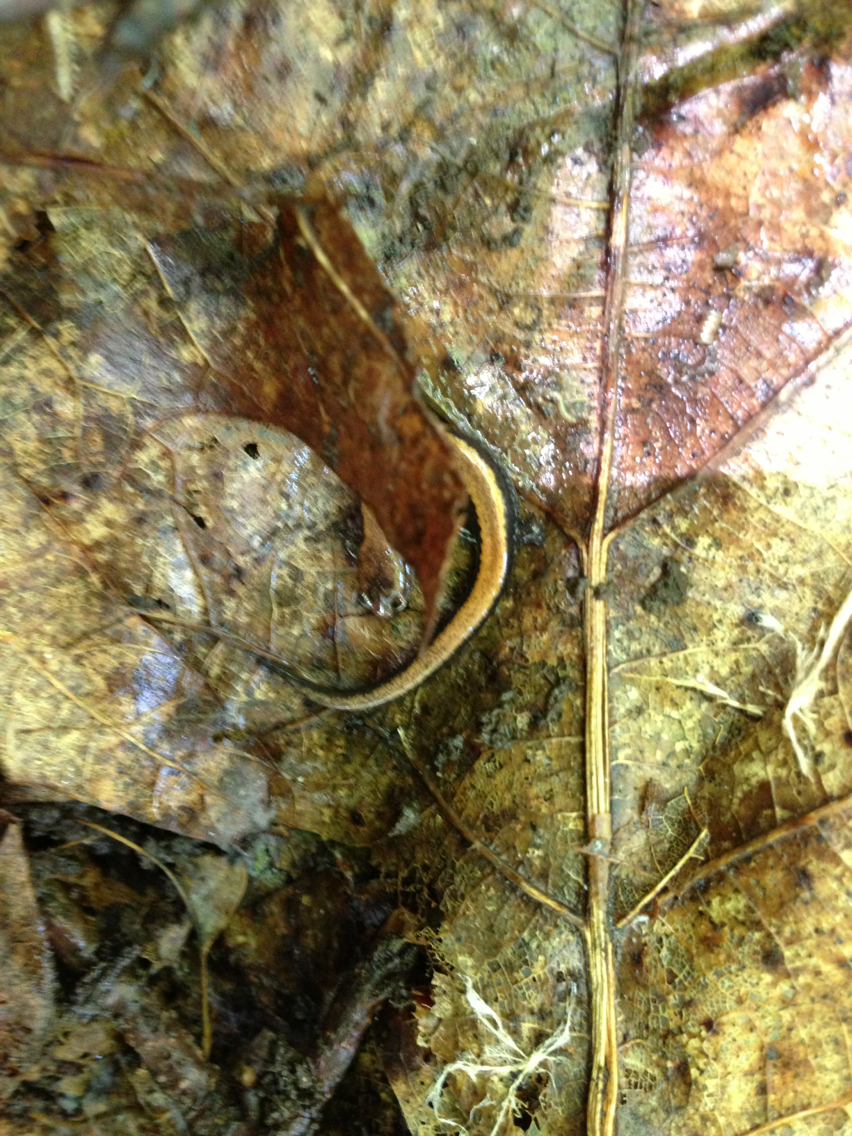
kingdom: Animalia
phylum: Chordata
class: Amphibia
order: Caudata
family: Plethodontidae
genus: Plethodon
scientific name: Plethodon cinereus
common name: Redback salamander
